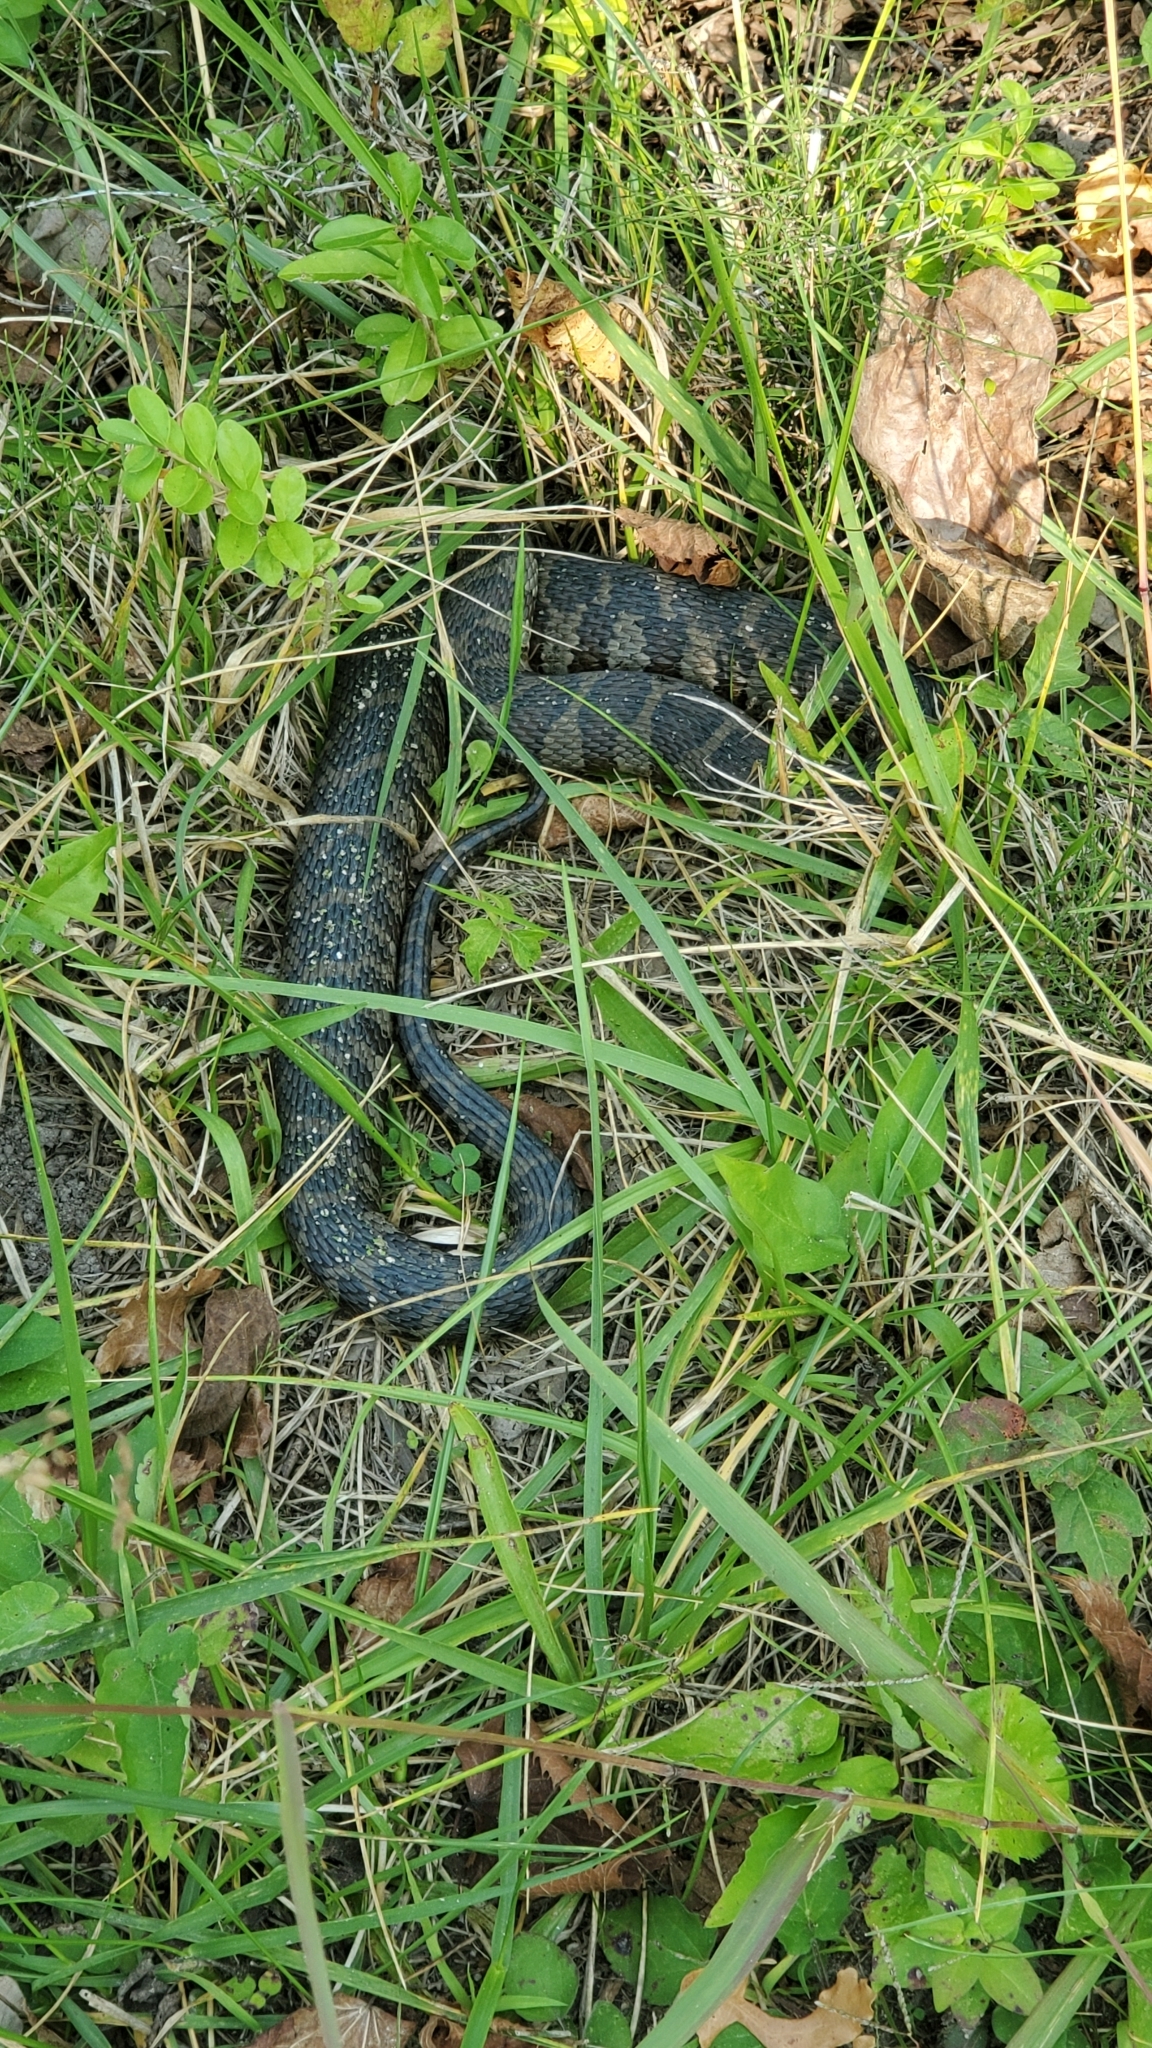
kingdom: Animalia
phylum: Chordata
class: Squamata
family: Colubridae
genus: Nerodia
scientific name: Nerodia sipedon
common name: Northern water snake
